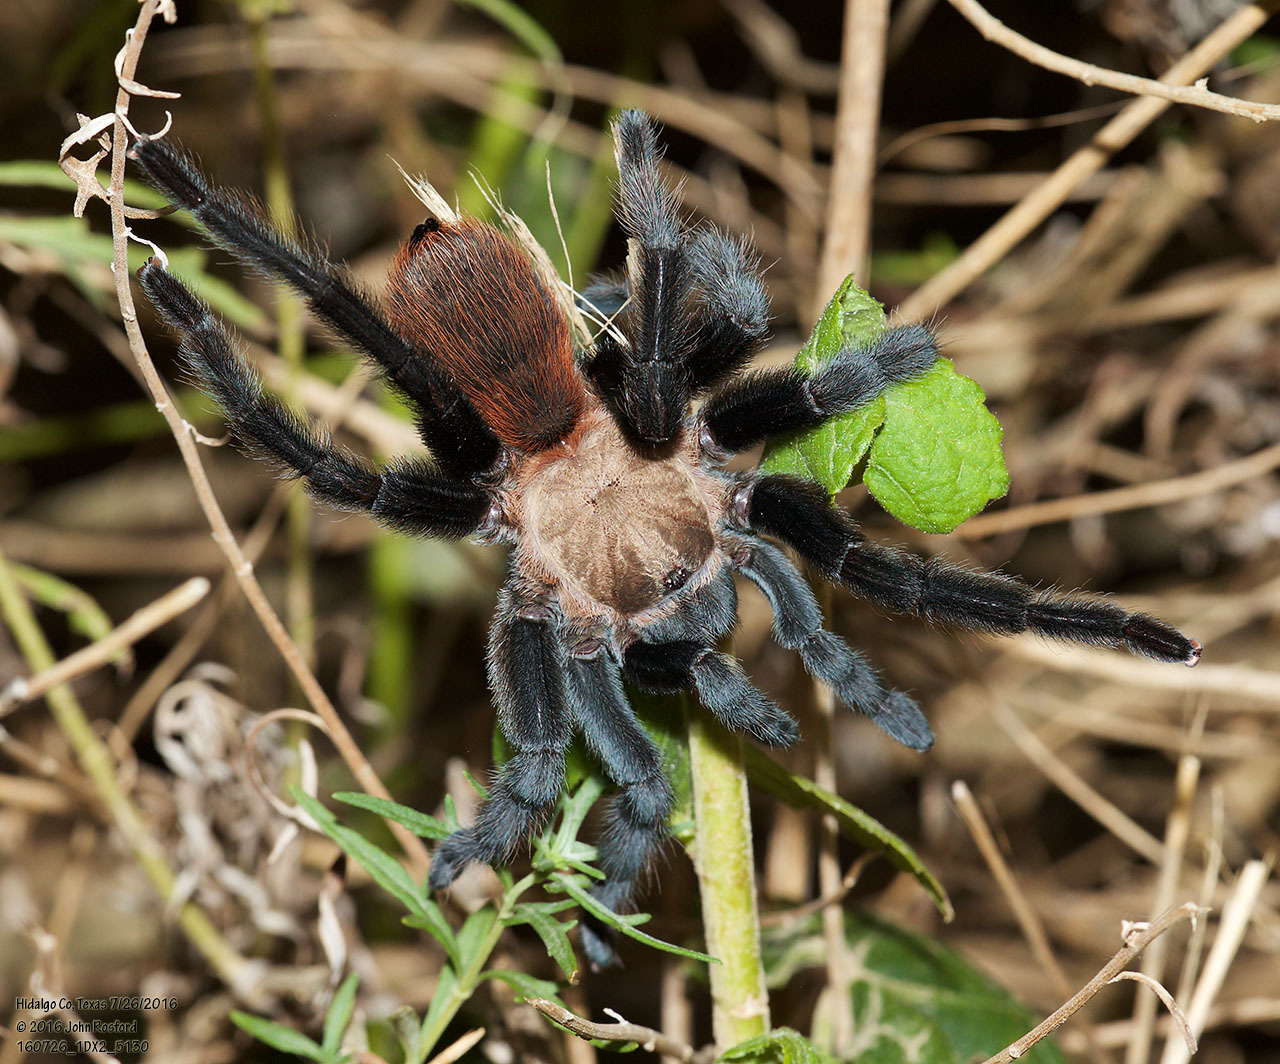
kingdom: Animalia
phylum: Arthropoda
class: Arachnida
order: Araneae
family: Theraphosidae
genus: Aphonopelma
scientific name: Aphonopelma anax
